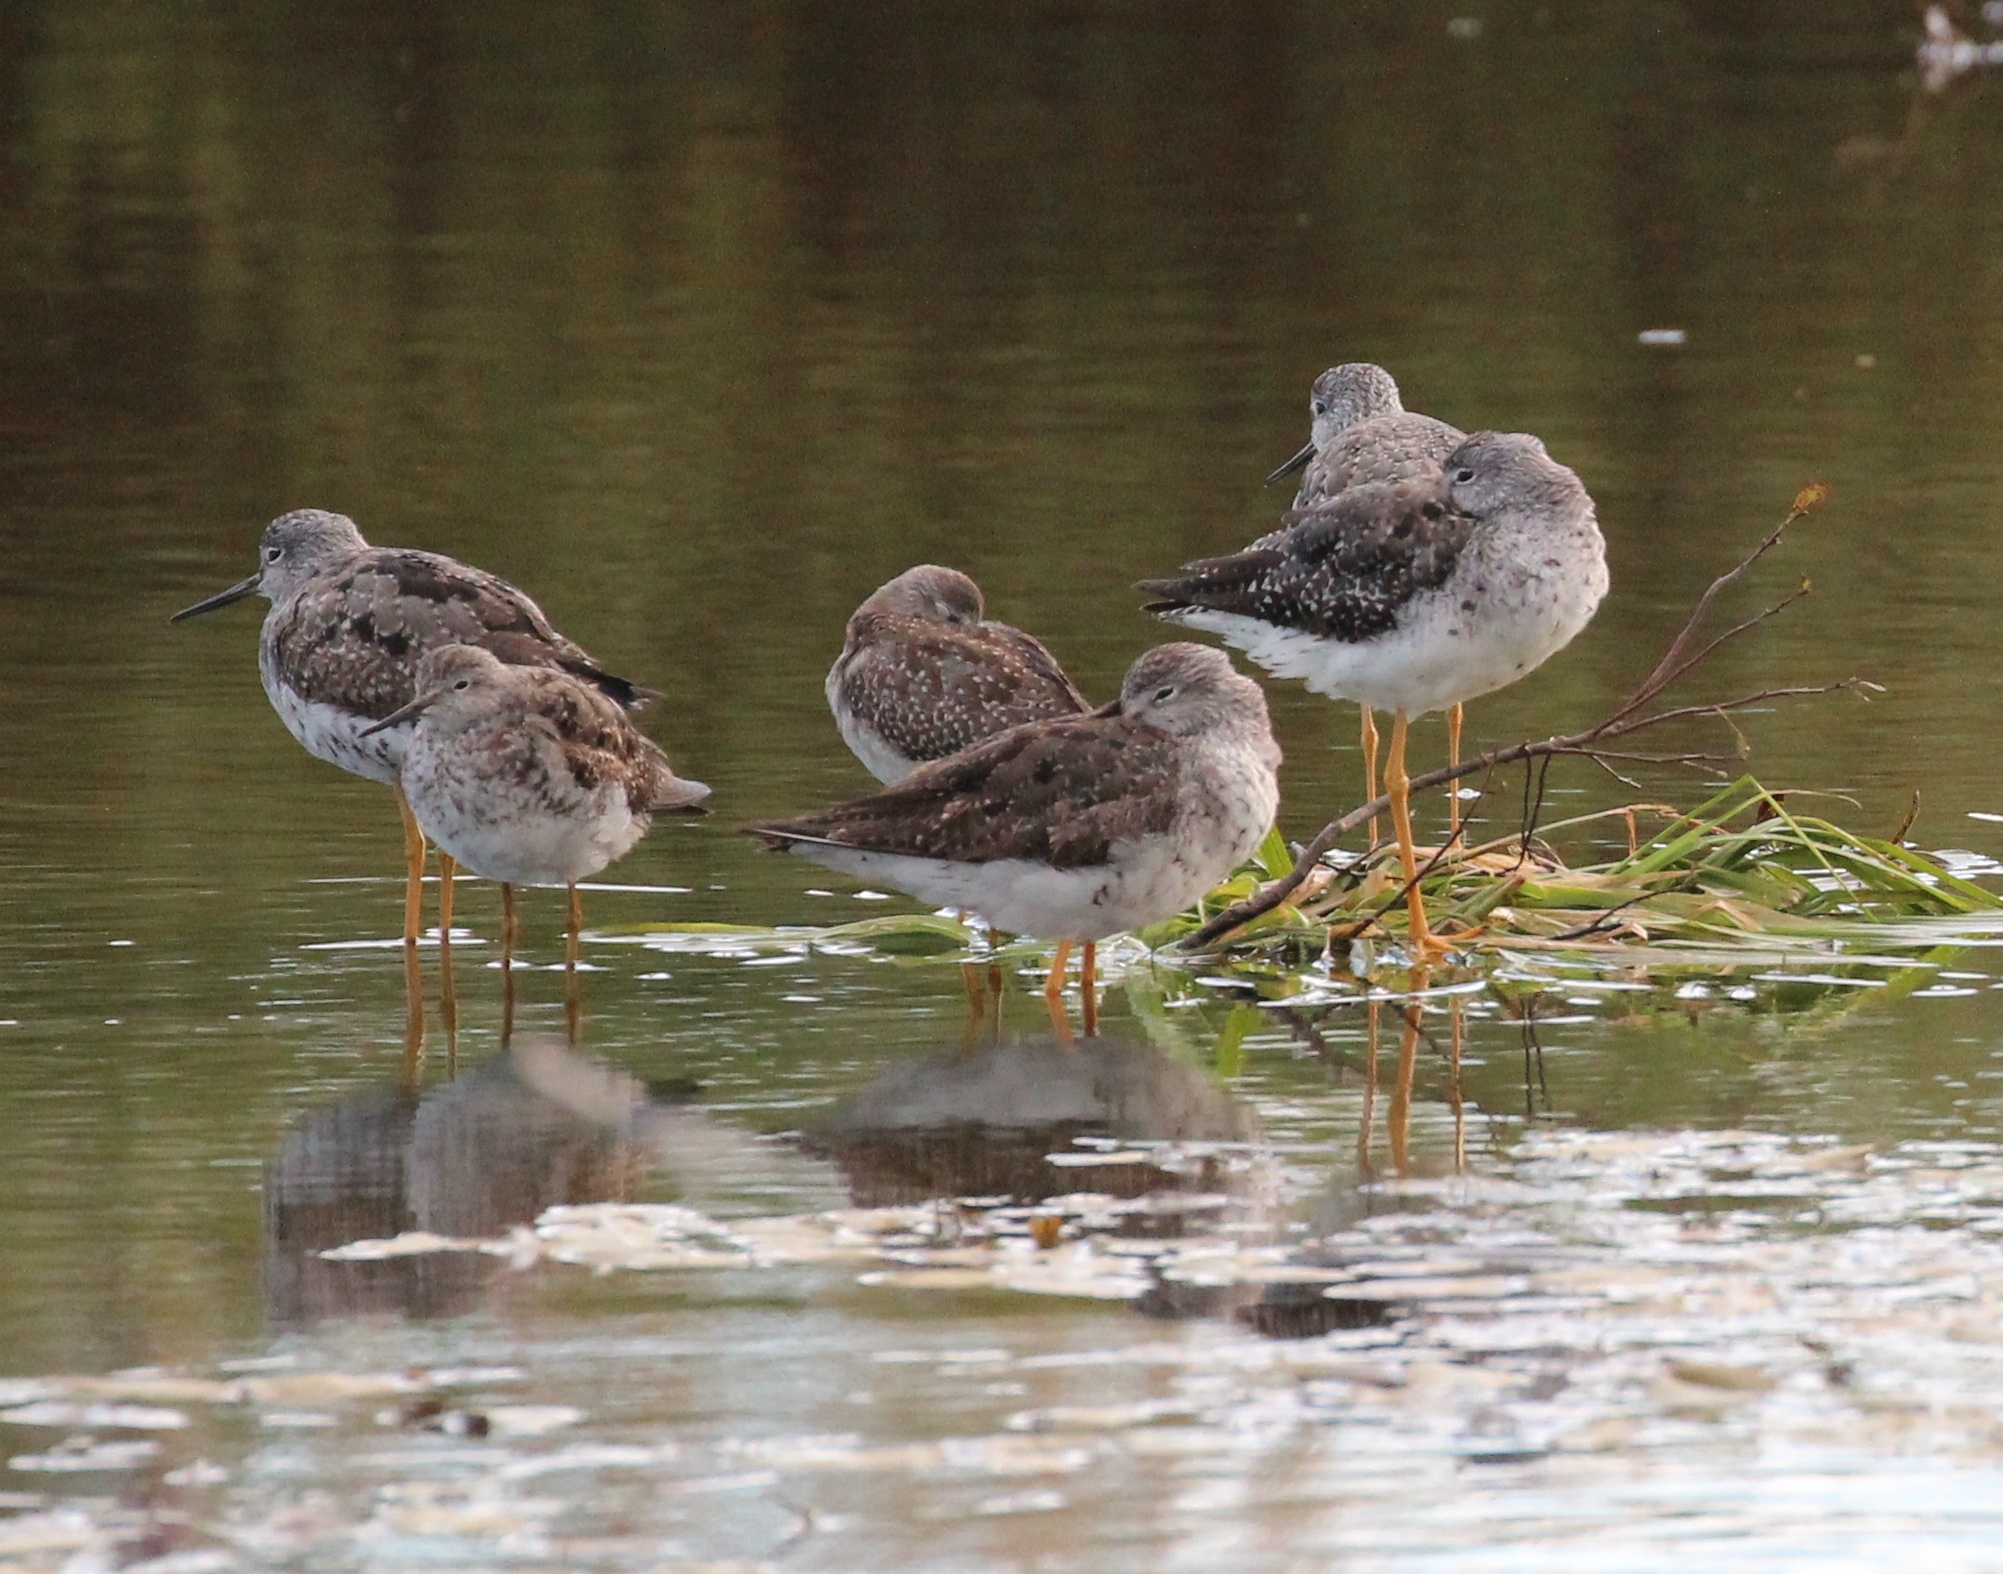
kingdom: Animalia
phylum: Chordata
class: Aves
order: Charadriiformes
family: Scolopacidae
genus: Tringa
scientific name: Tringa flavipes
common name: Lesser yellowlegs
